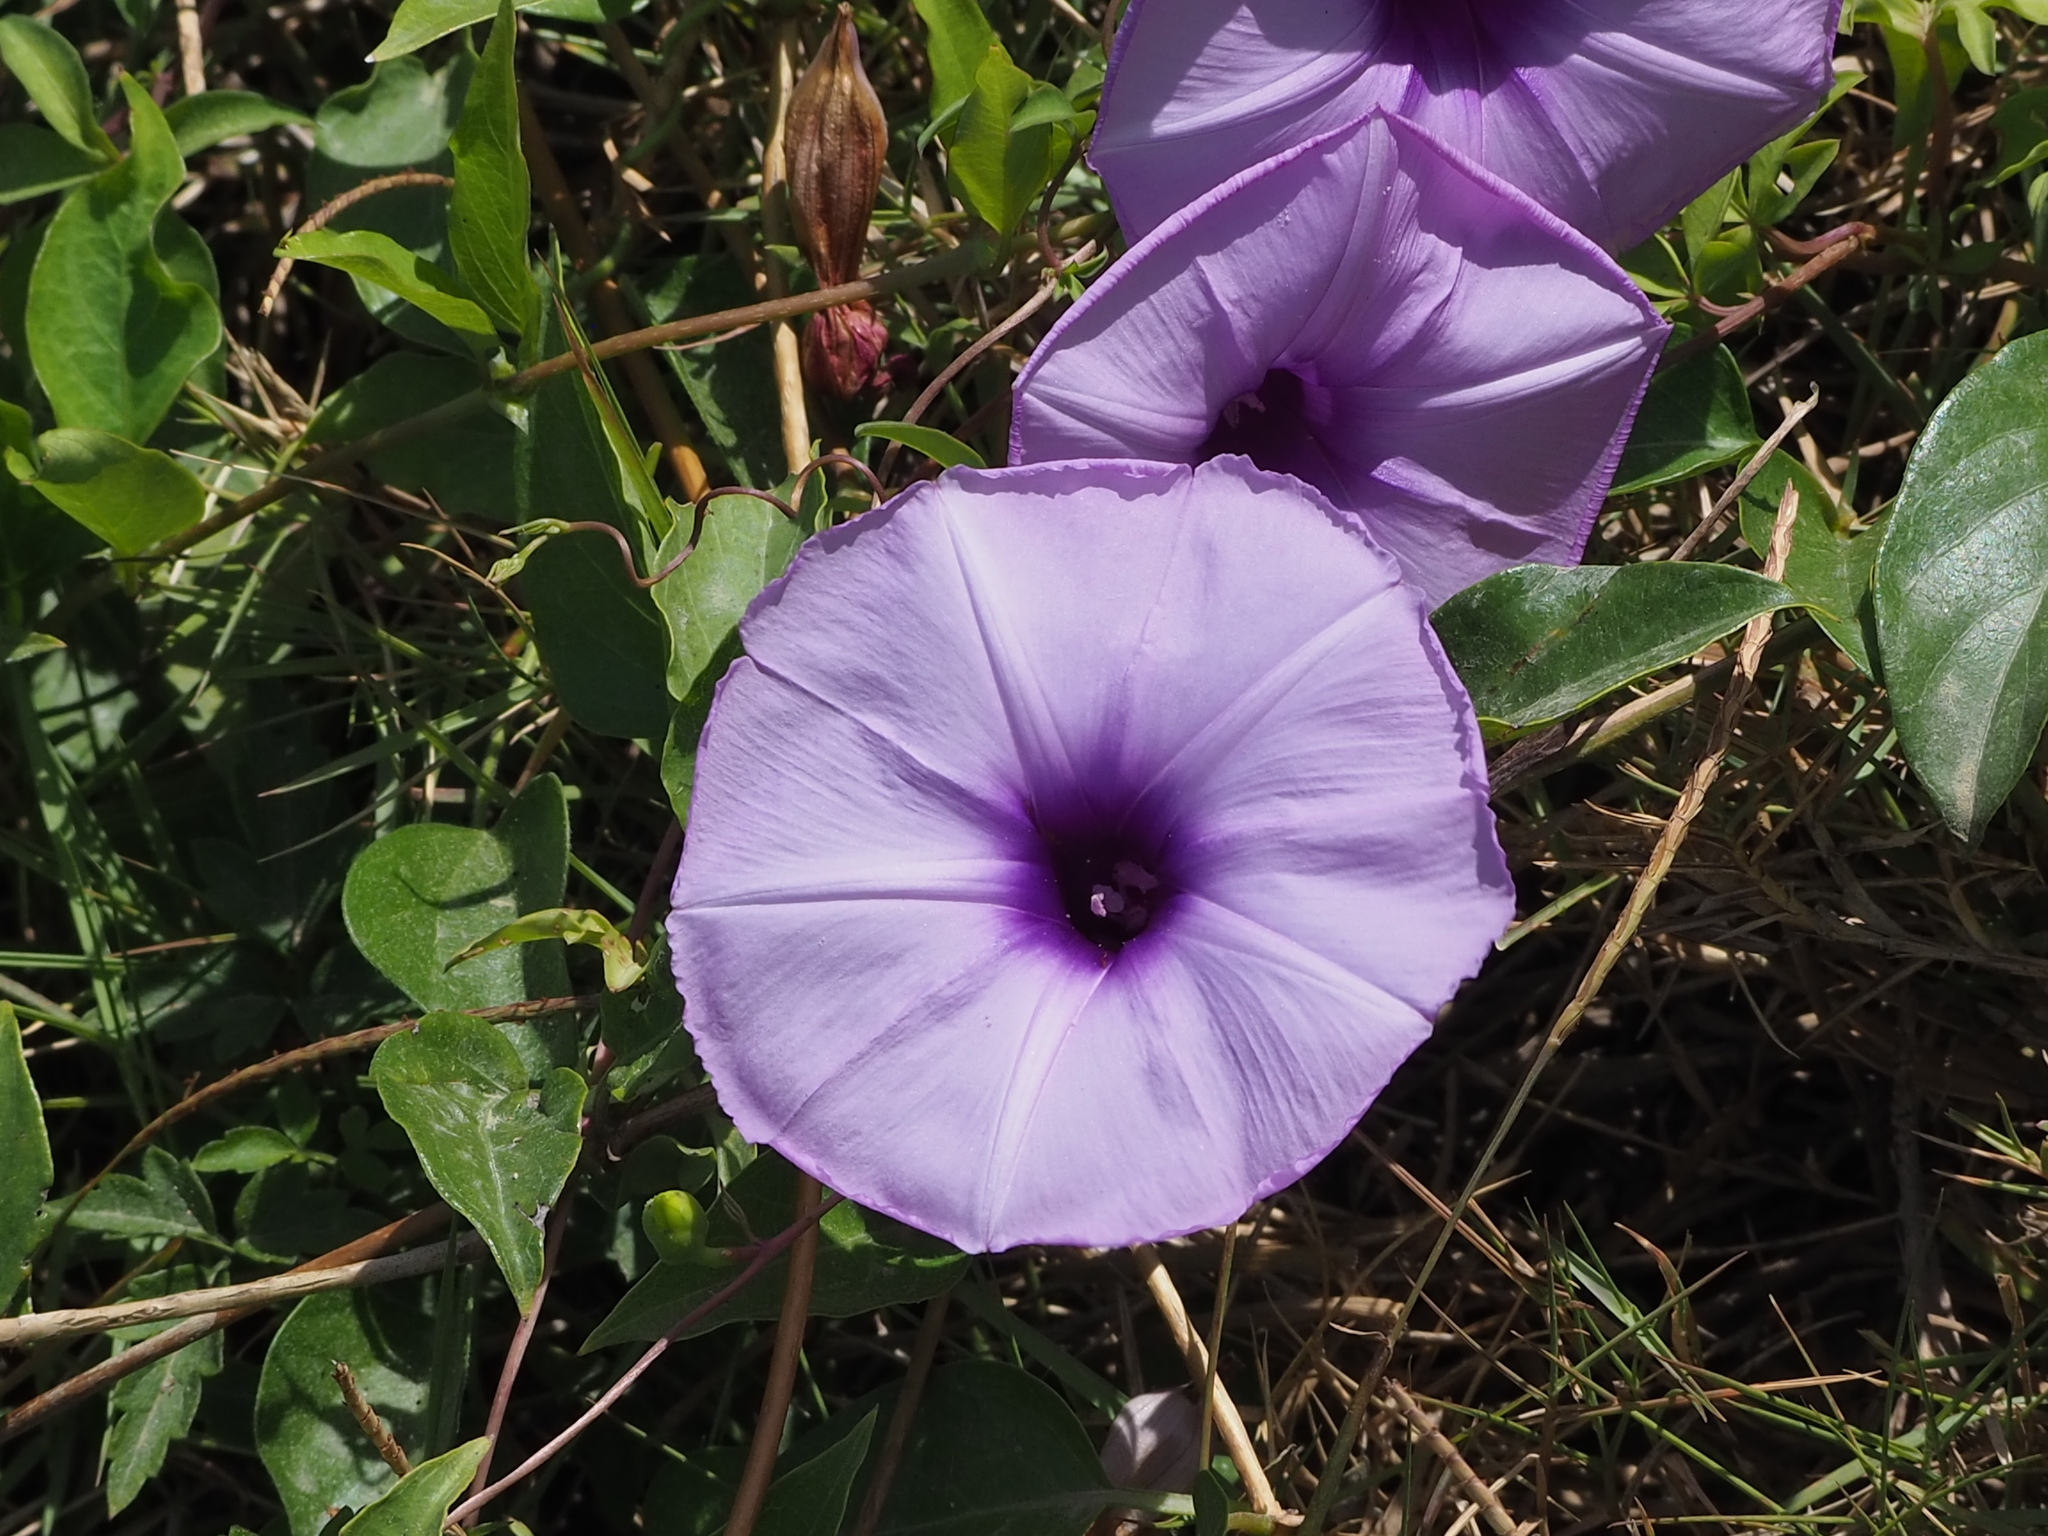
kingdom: Plantae
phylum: Tracheophyta
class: Magnoliopsida
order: Solanales
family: Convolvulaceae
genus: Ipomoea
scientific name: Ipomoea cairica
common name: Mile a minute vine
